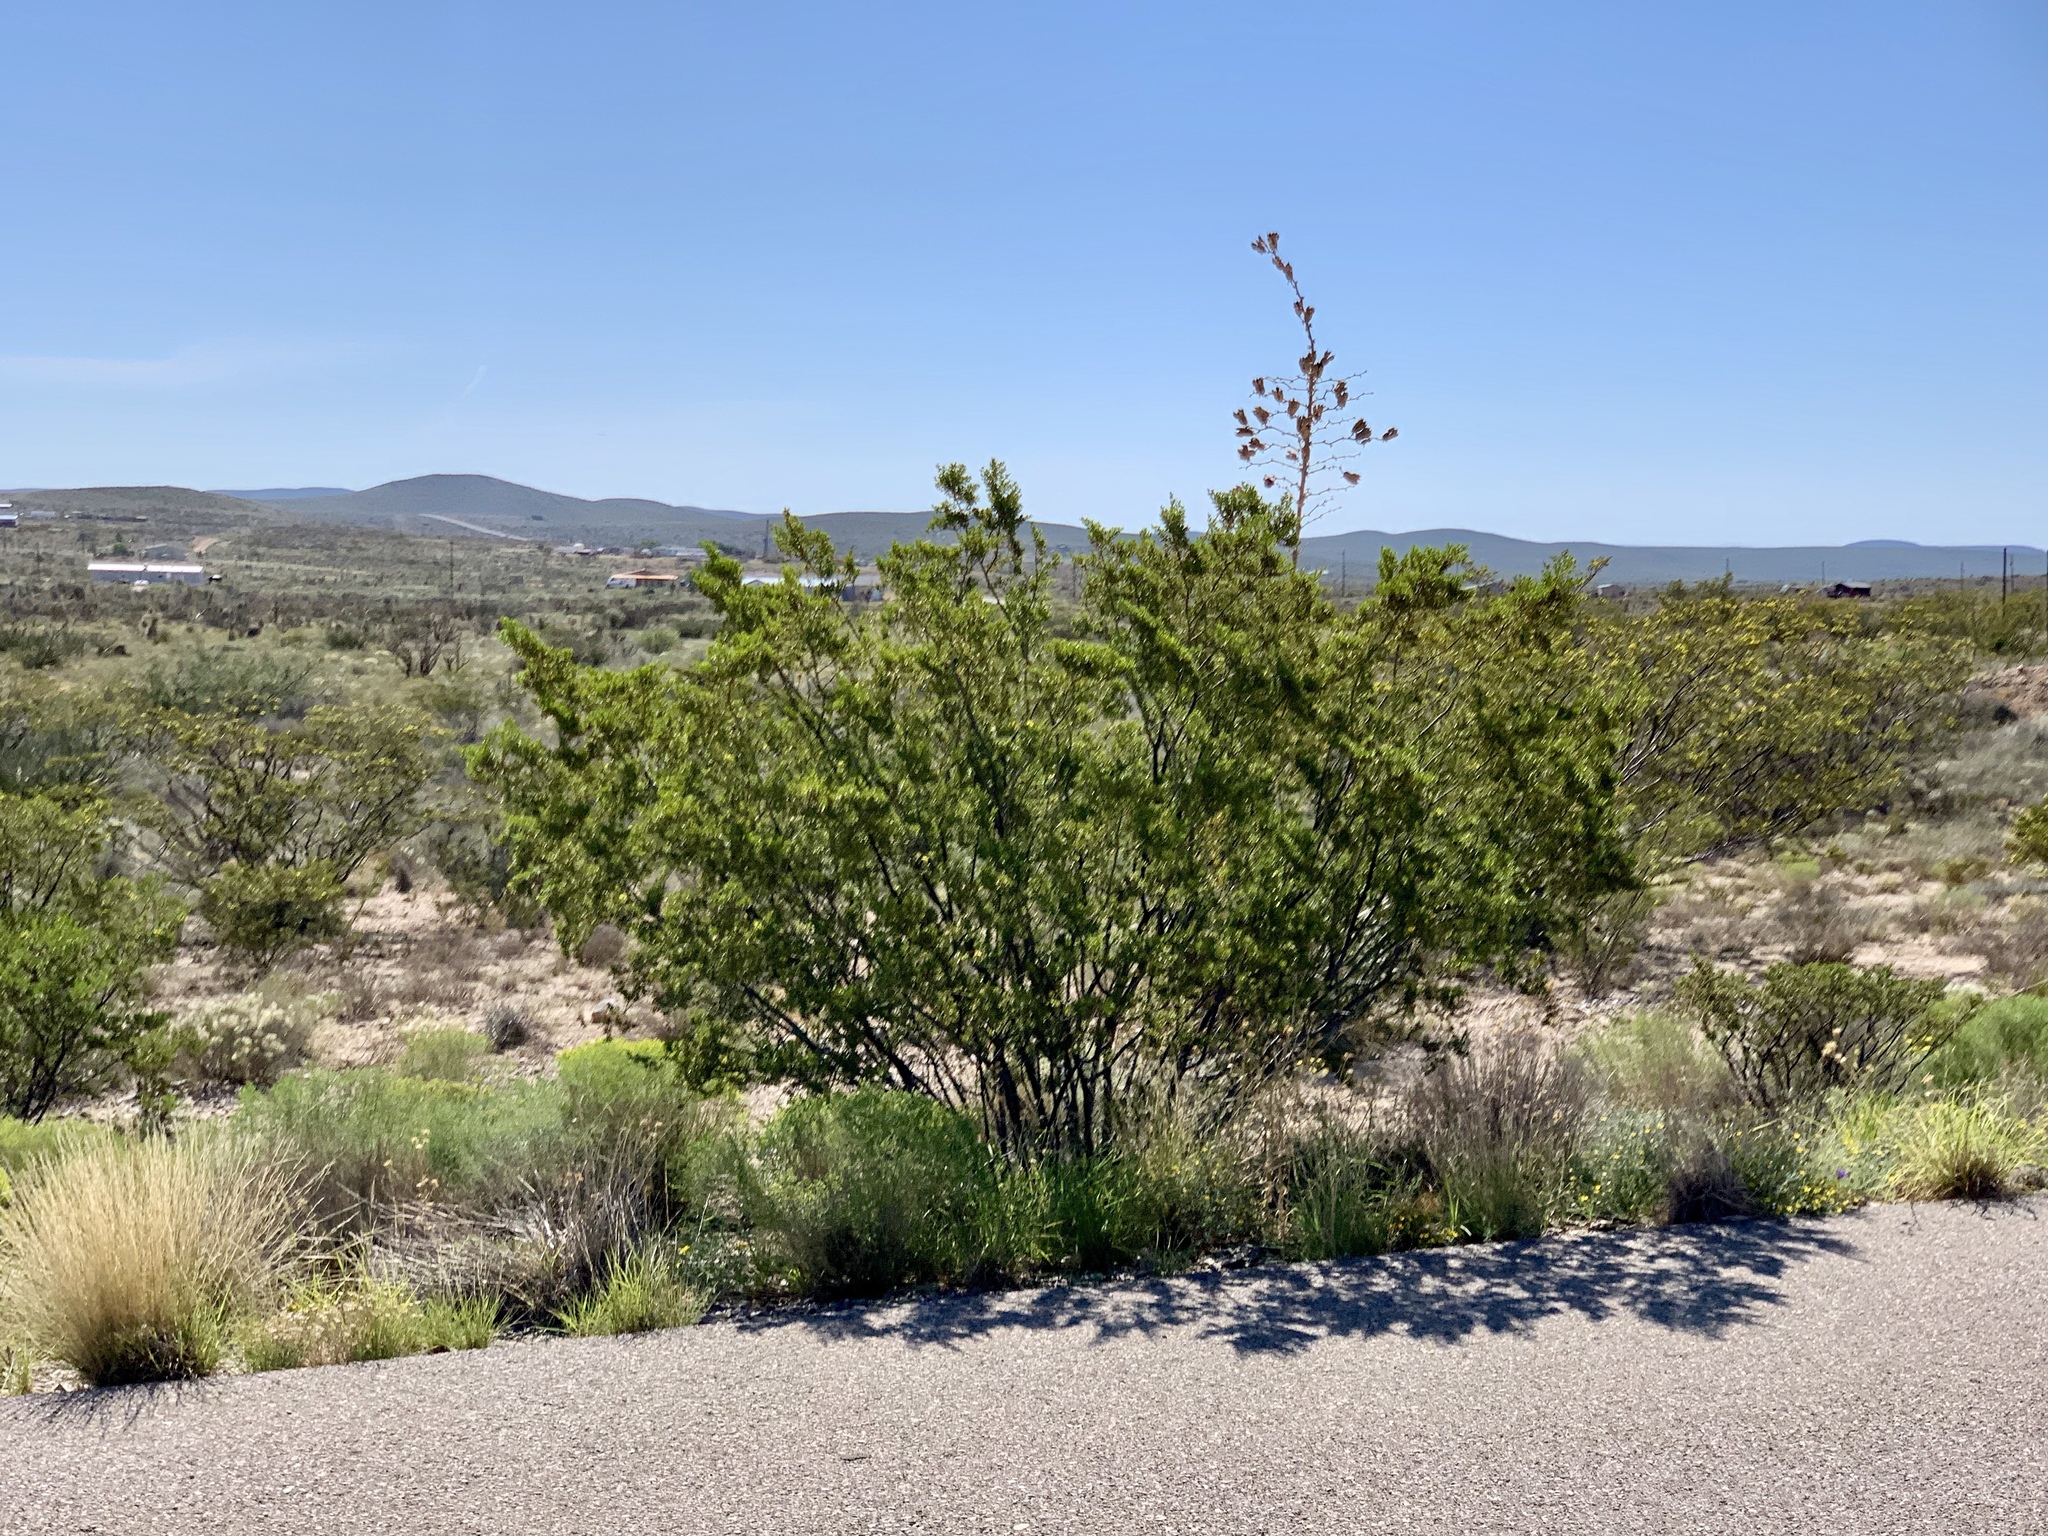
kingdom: Plantae
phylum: Tracheophyta
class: Magnoliopsida
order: Zygophyllales
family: Zygophyllaceae
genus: Larrea
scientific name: Larrea tridentata
